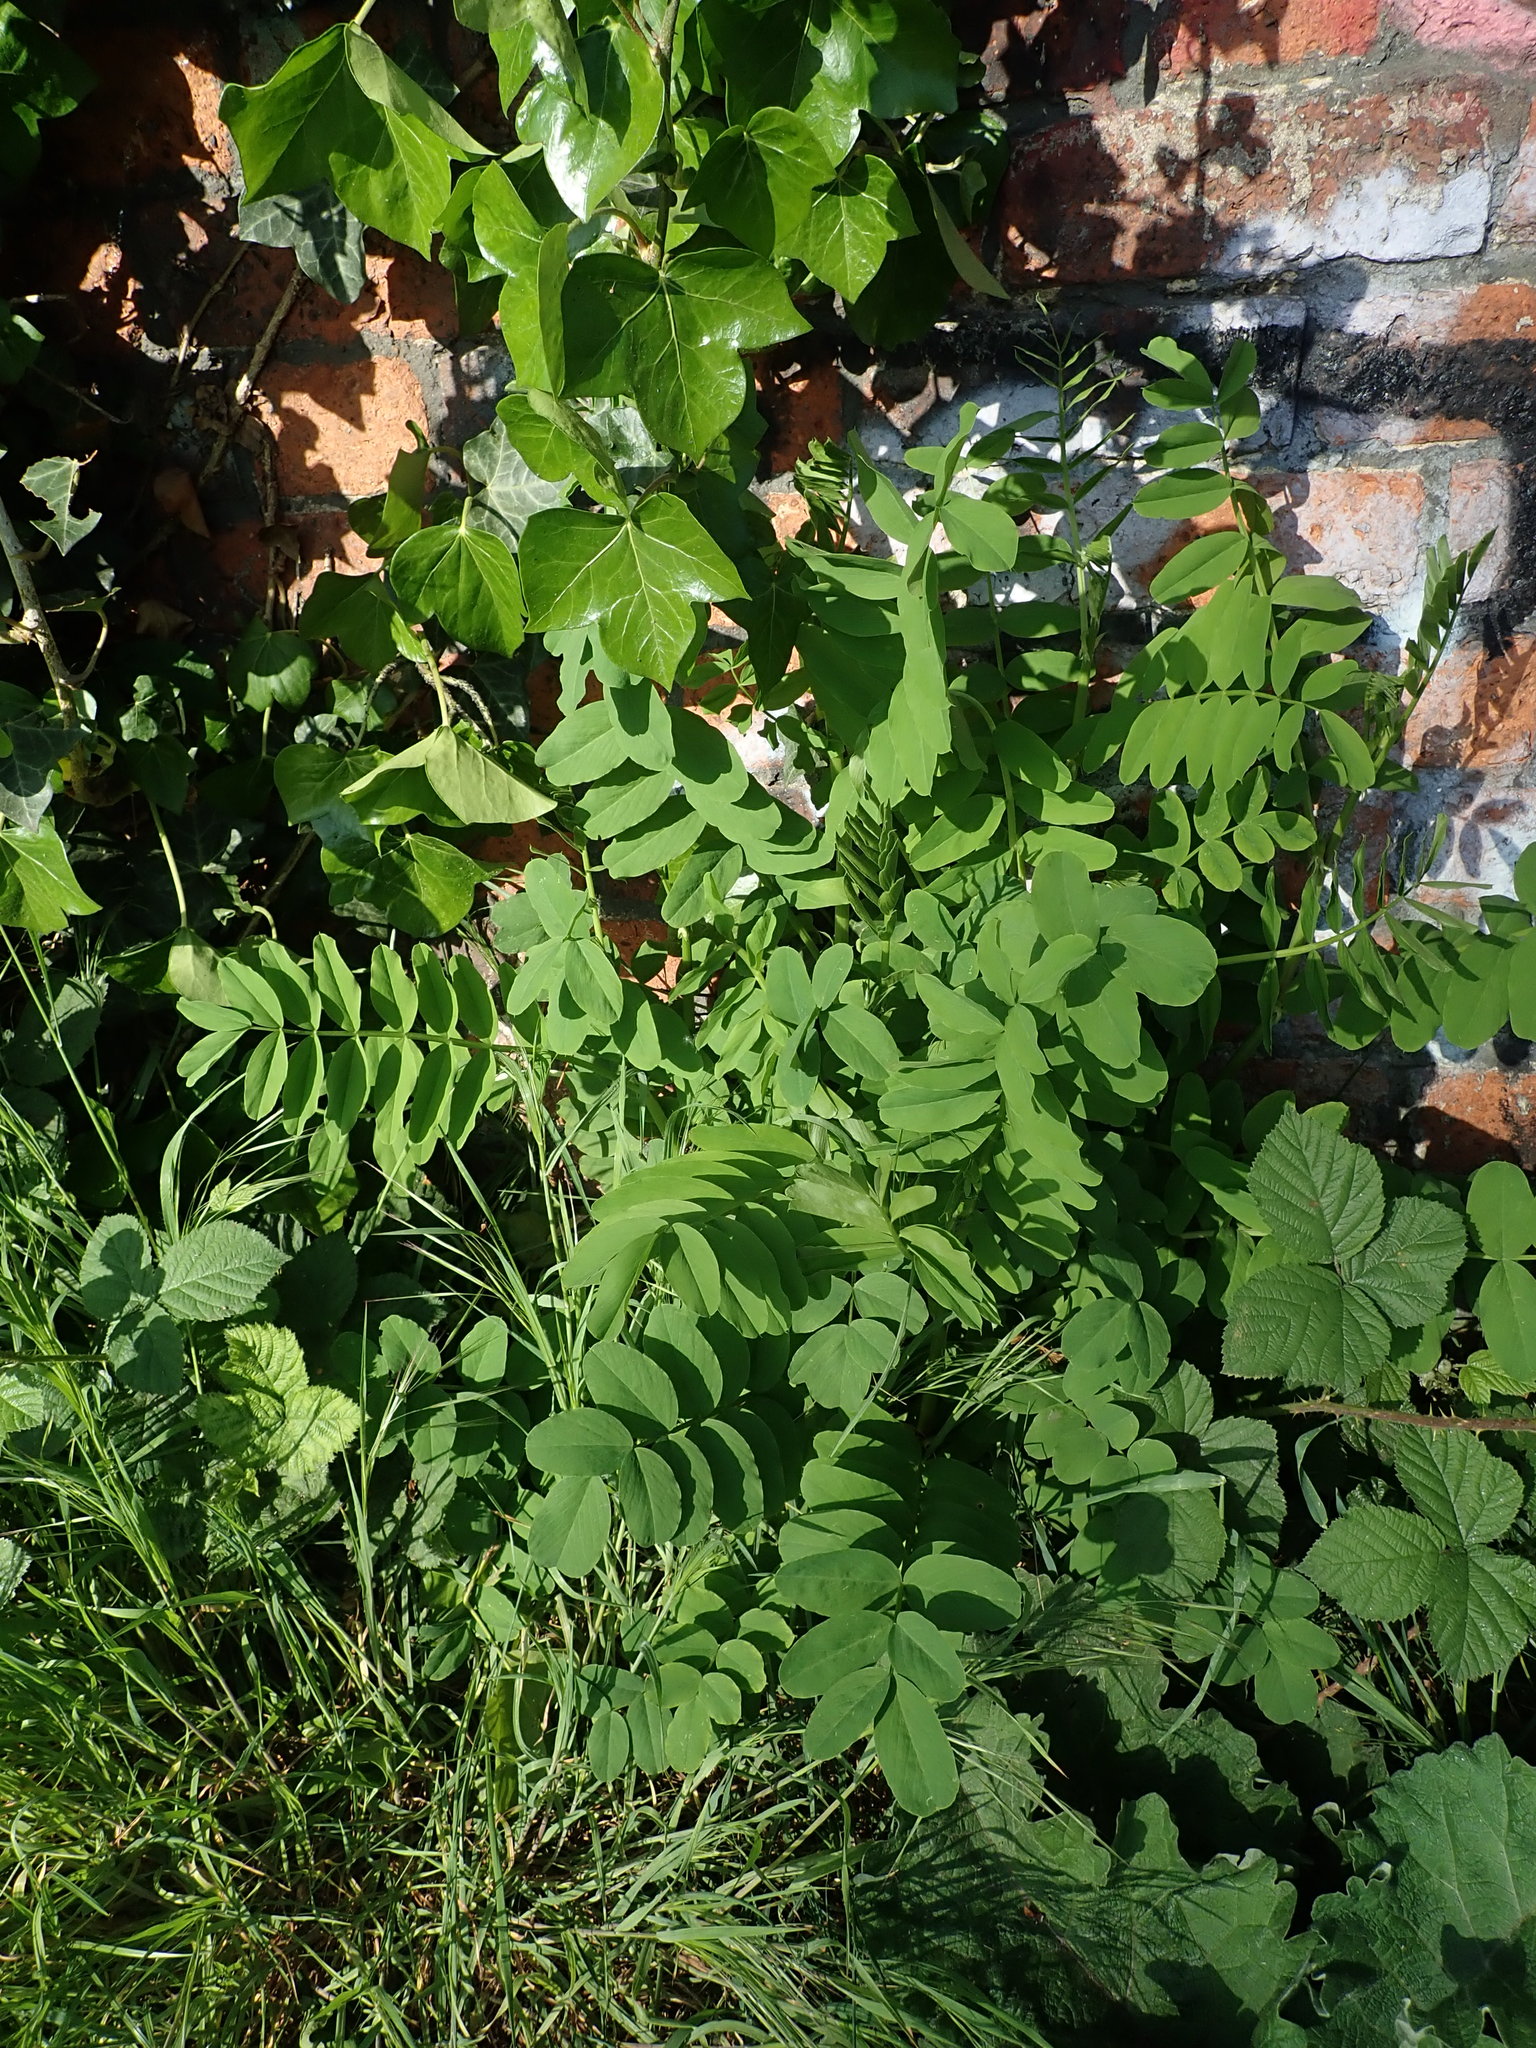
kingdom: Plantae
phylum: Tracheophyta
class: Magnoliopsida
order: Fabales
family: Fabaceae
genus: Galega
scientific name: Galega officinalis
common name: Goat's-rue
